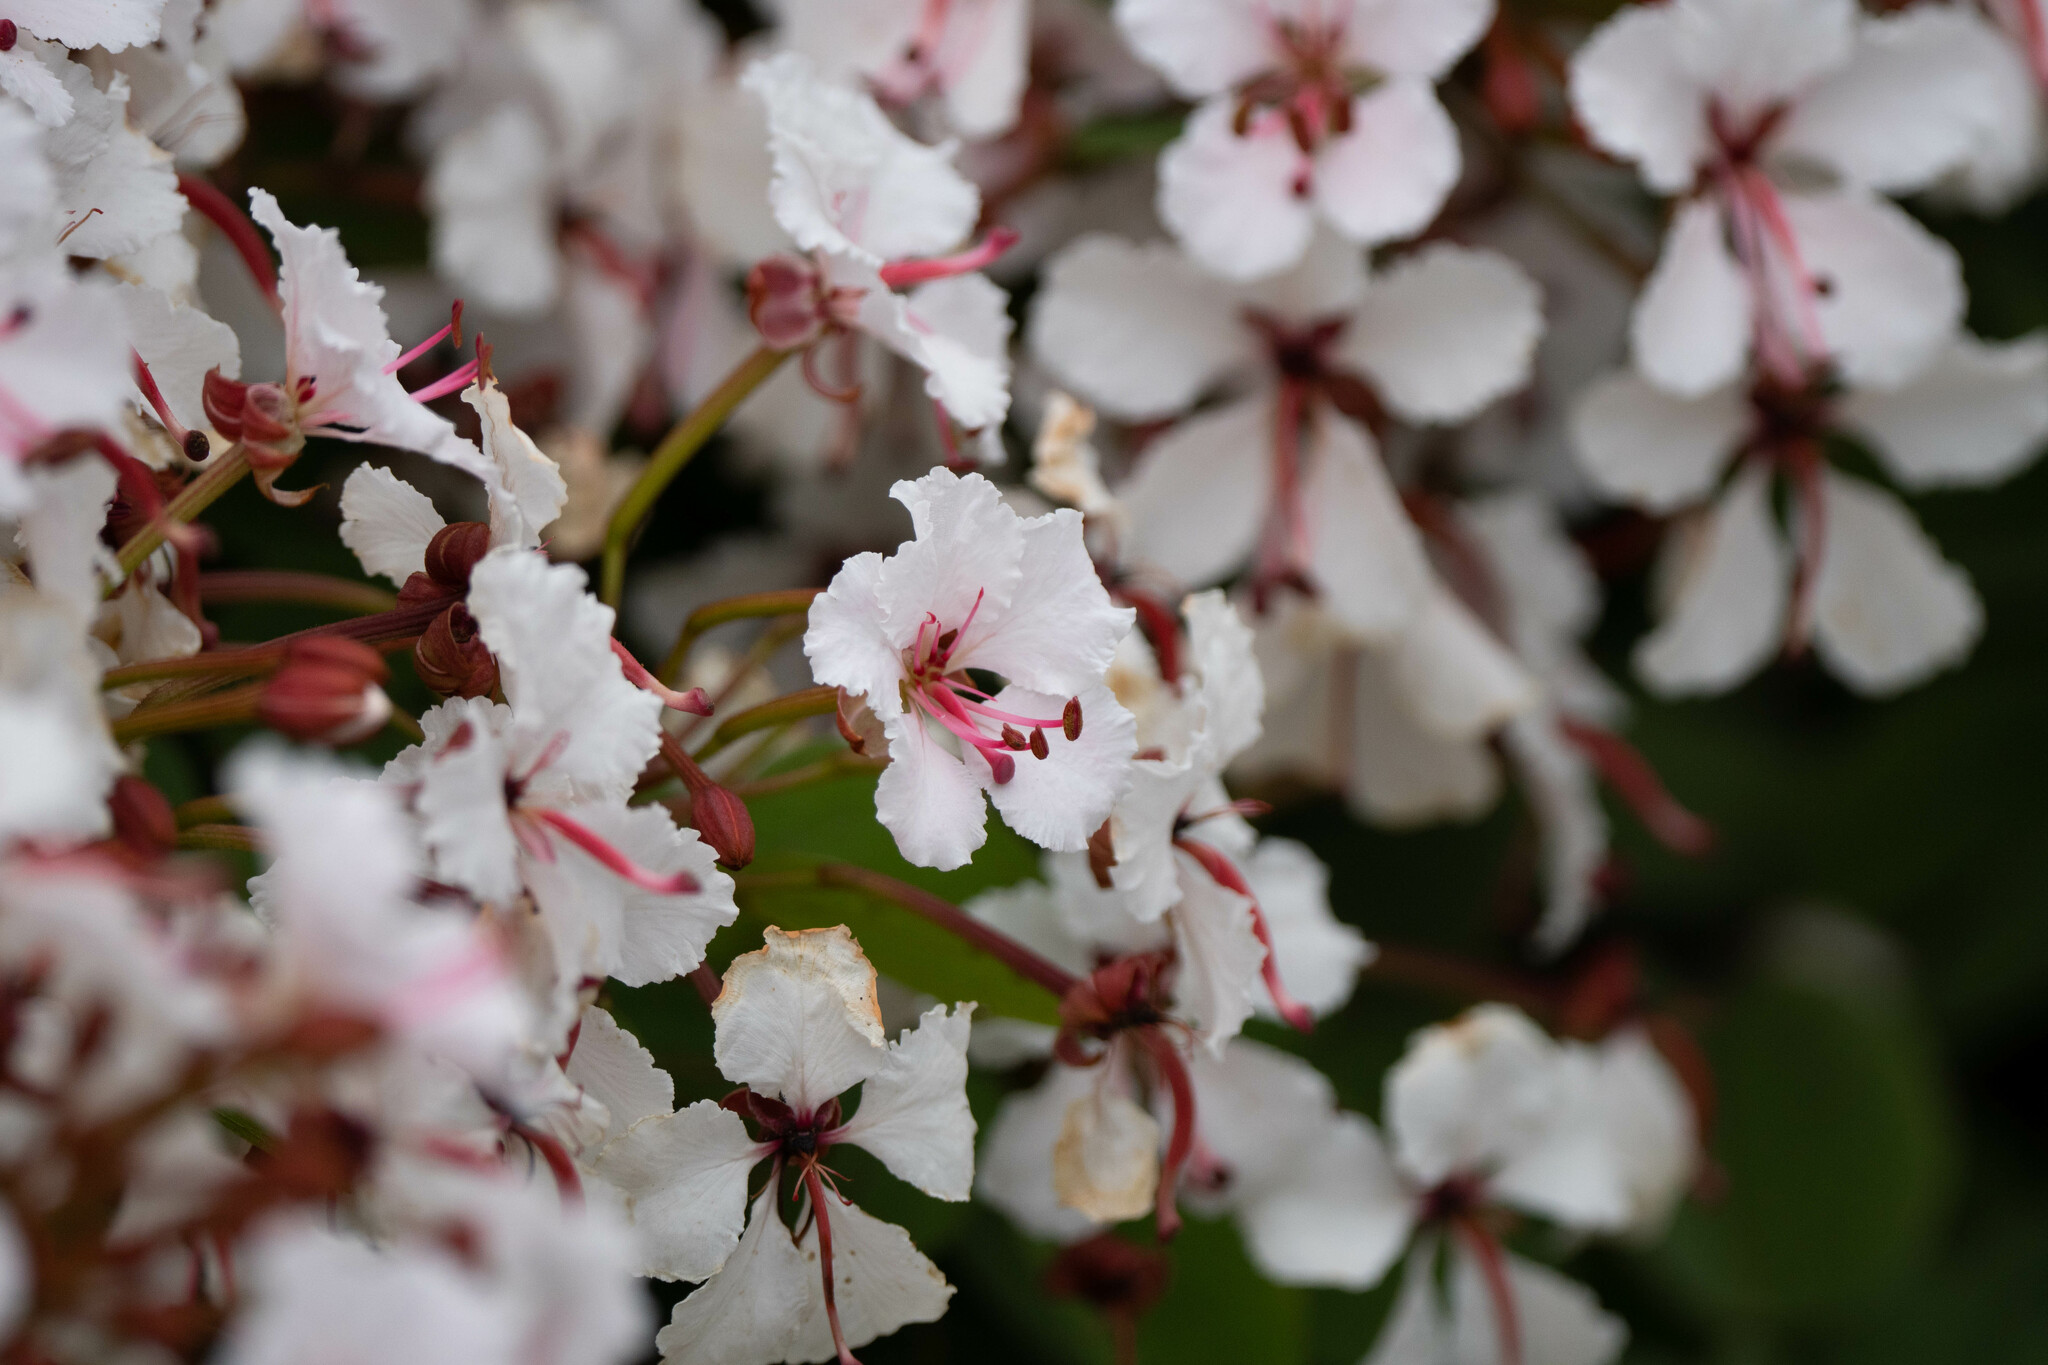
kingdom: Plantae
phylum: Tracheophyta
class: Magnoliopsida
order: Fabales
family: Fabaceae
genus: Cheniella
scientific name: Cheniella corymbosa
